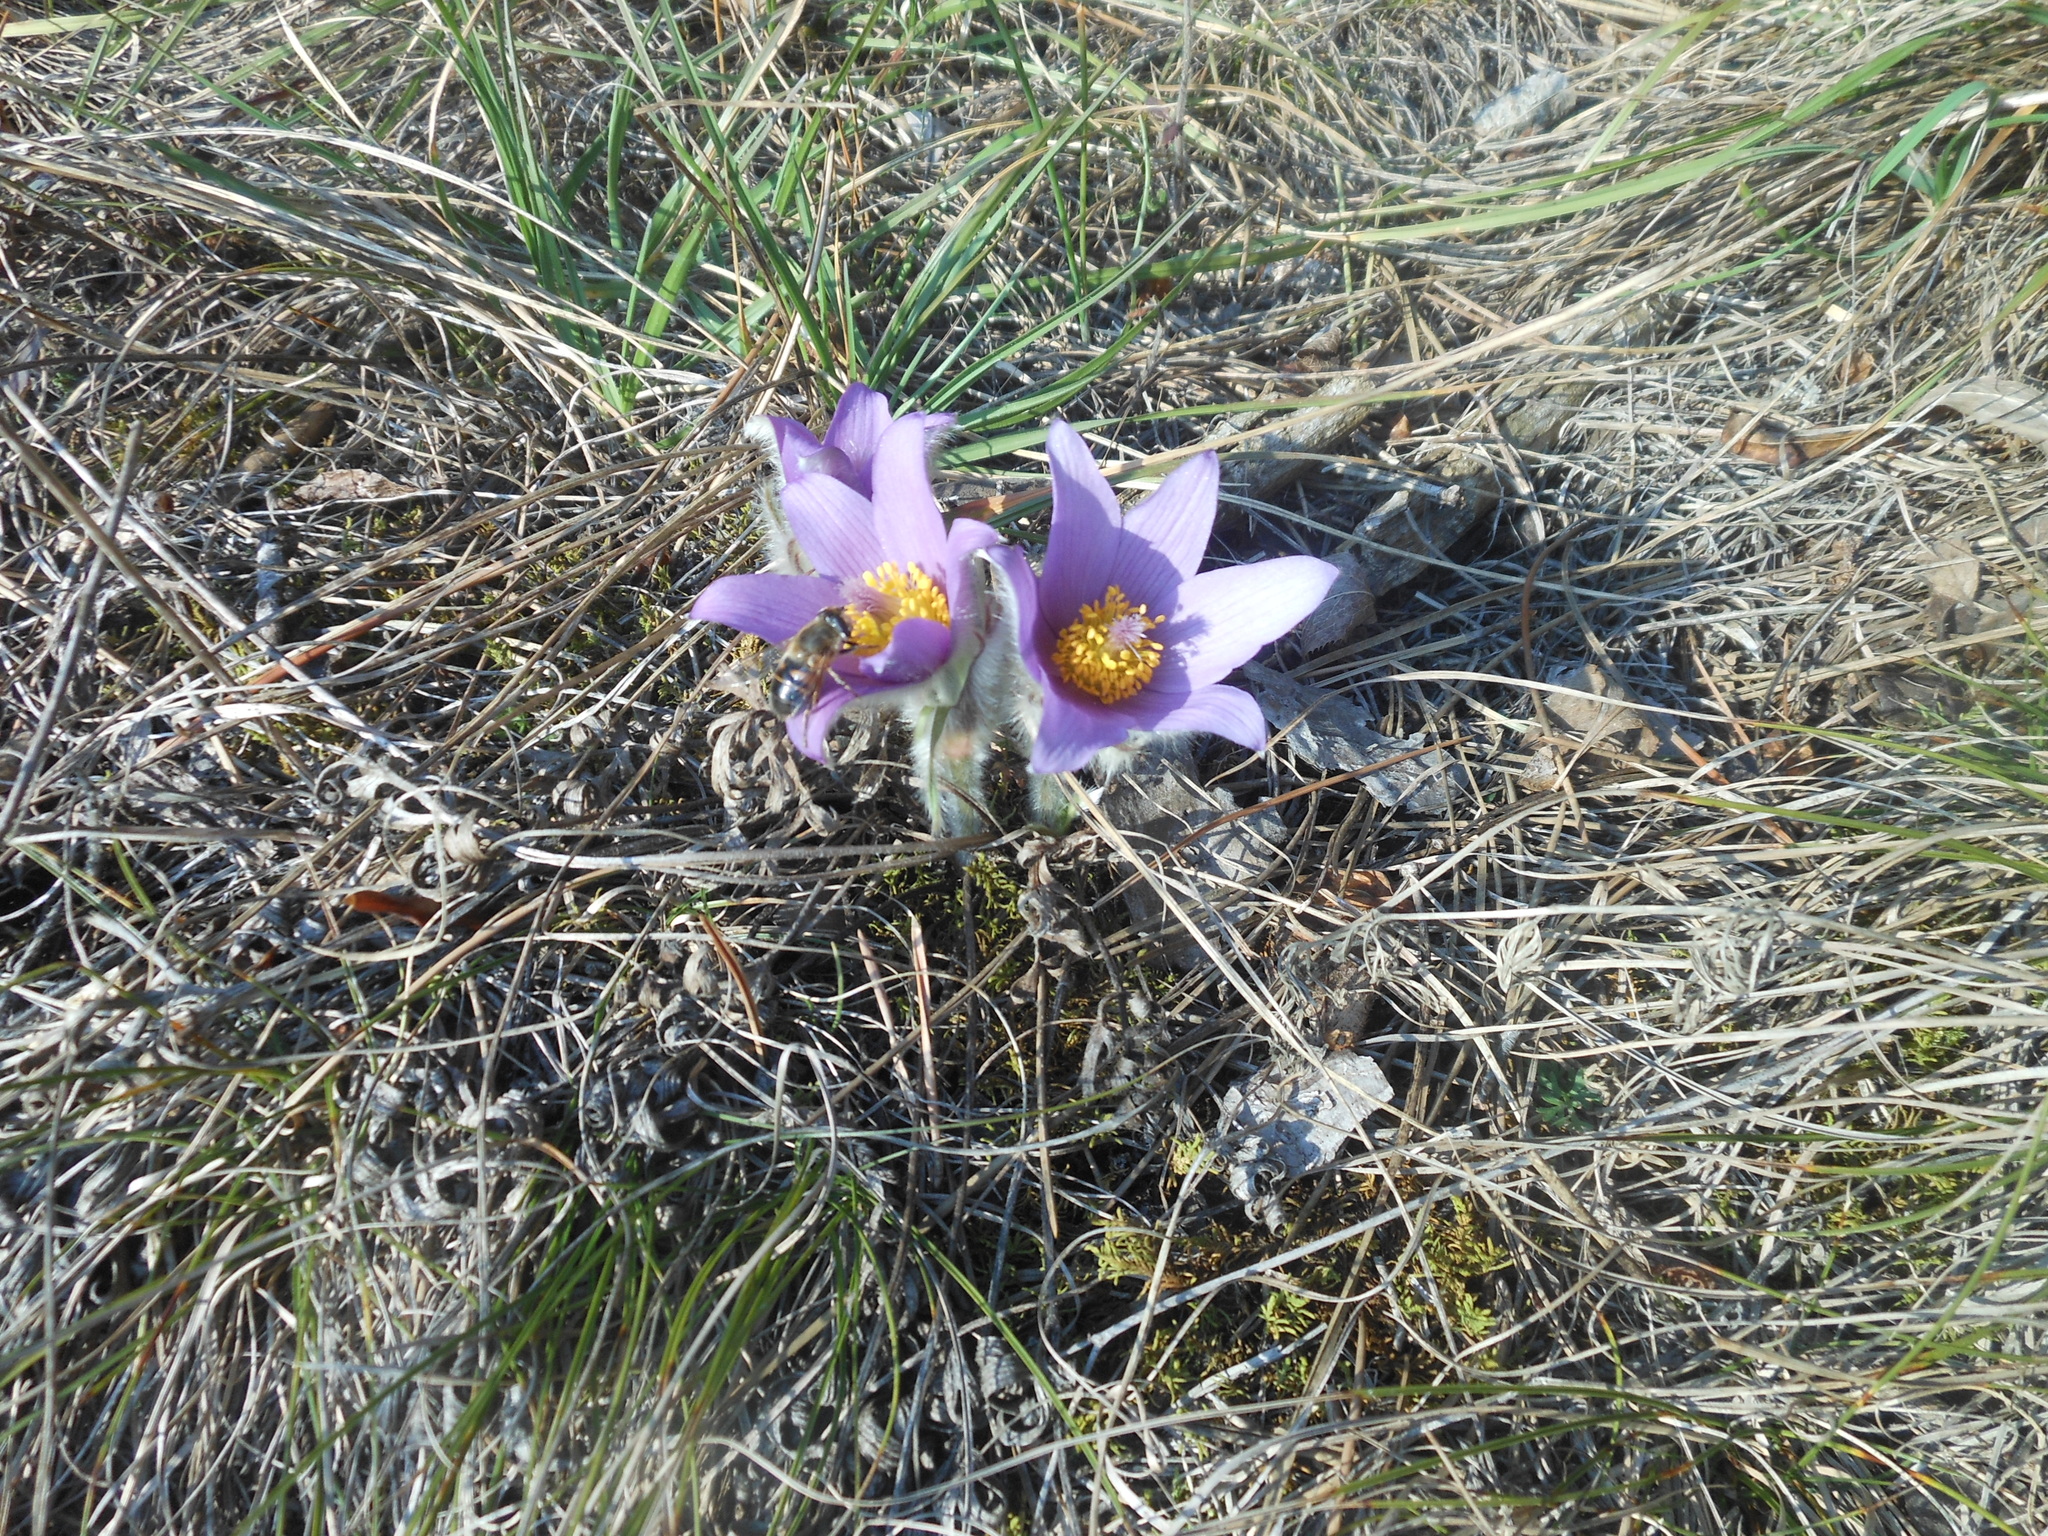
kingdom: Plantae
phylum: Tracheophyta
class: Magnoliopsida
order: Ranunculales
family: Ranunculaceae
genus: Pulsatilla
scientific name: Pulsatilla grandis
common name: Greater pasque flower
